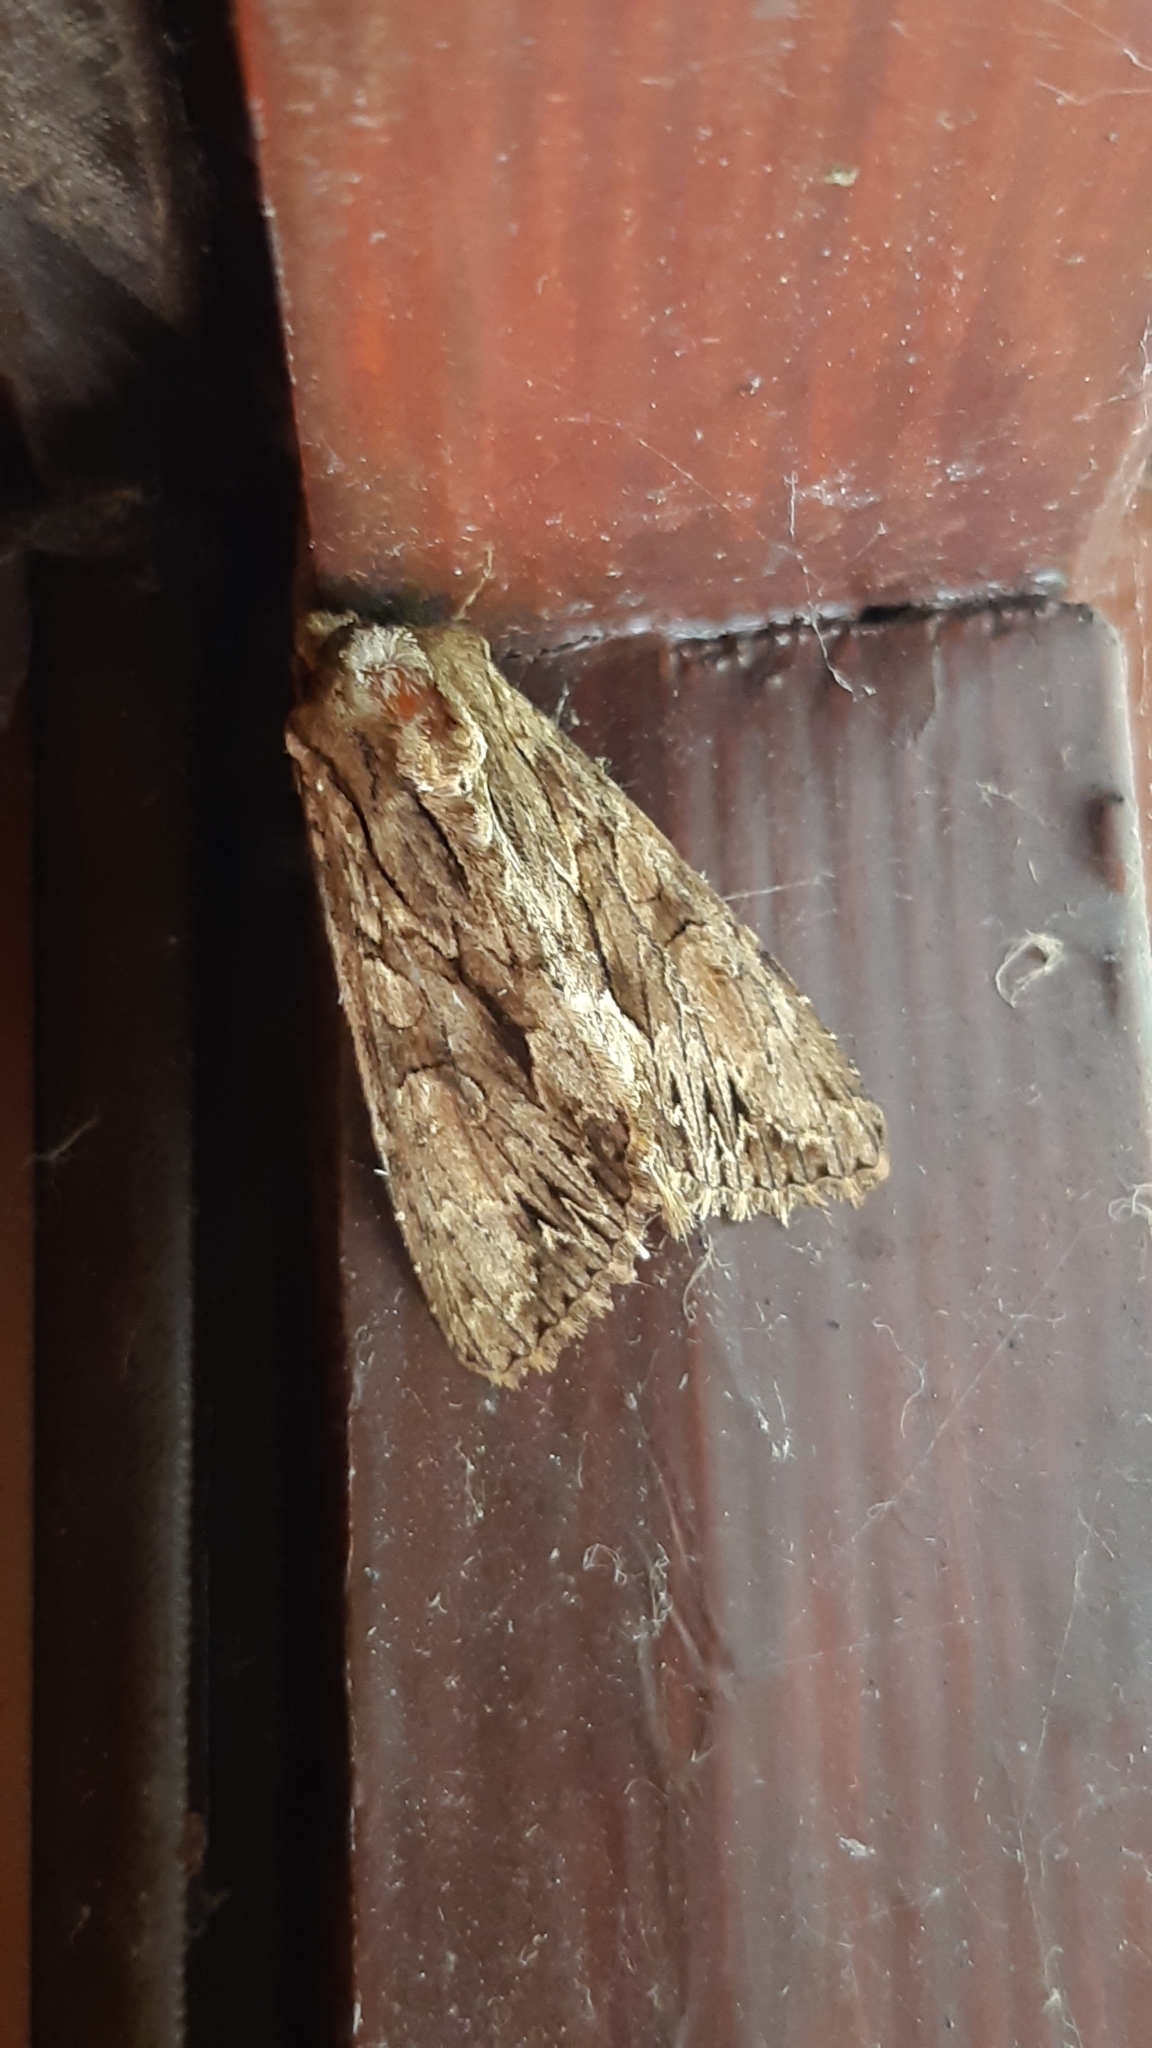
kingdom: Animalia
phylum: Arthropoda
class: Insecta
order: Lepidoptera
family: Noctuidae
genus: Apamea
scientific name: Apamea monoglypha
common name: Dark arches
